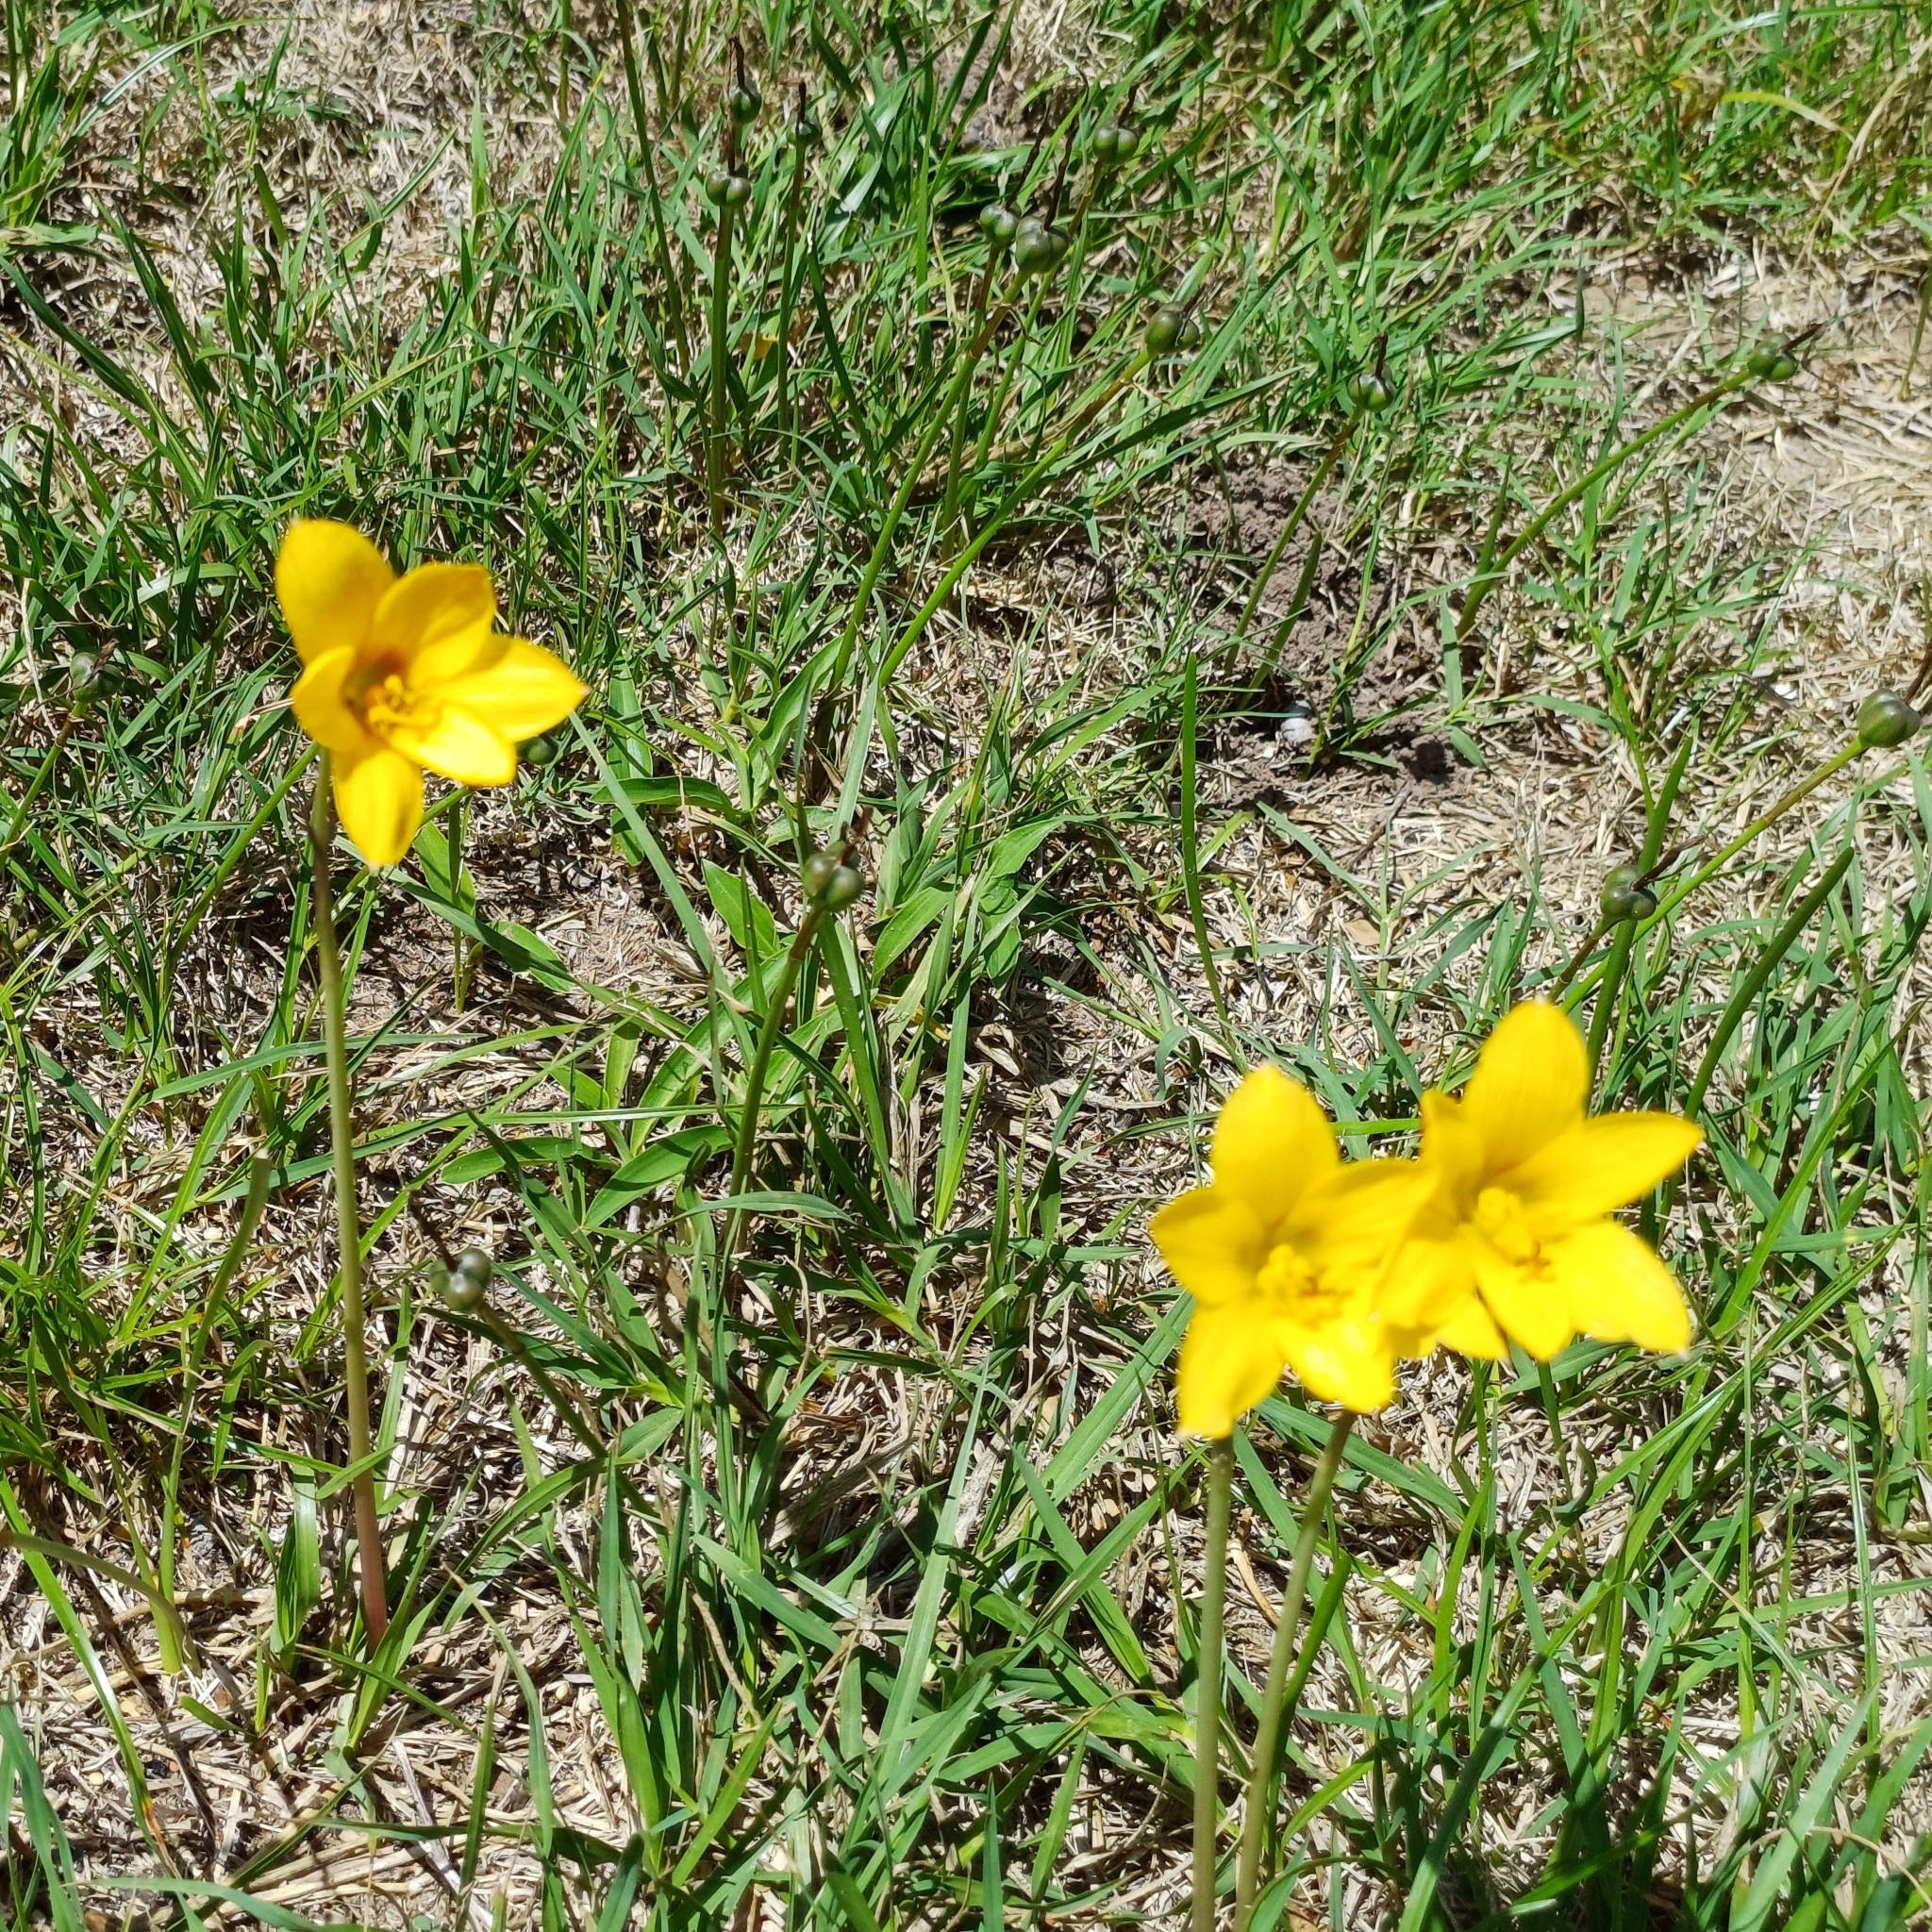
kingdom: Plantae
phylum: Tracheophyta
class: Liliopsida
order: Asparagales
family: Amaryllidaceae
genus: Zephyranthes
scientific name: Zephyranthes tubispatha
